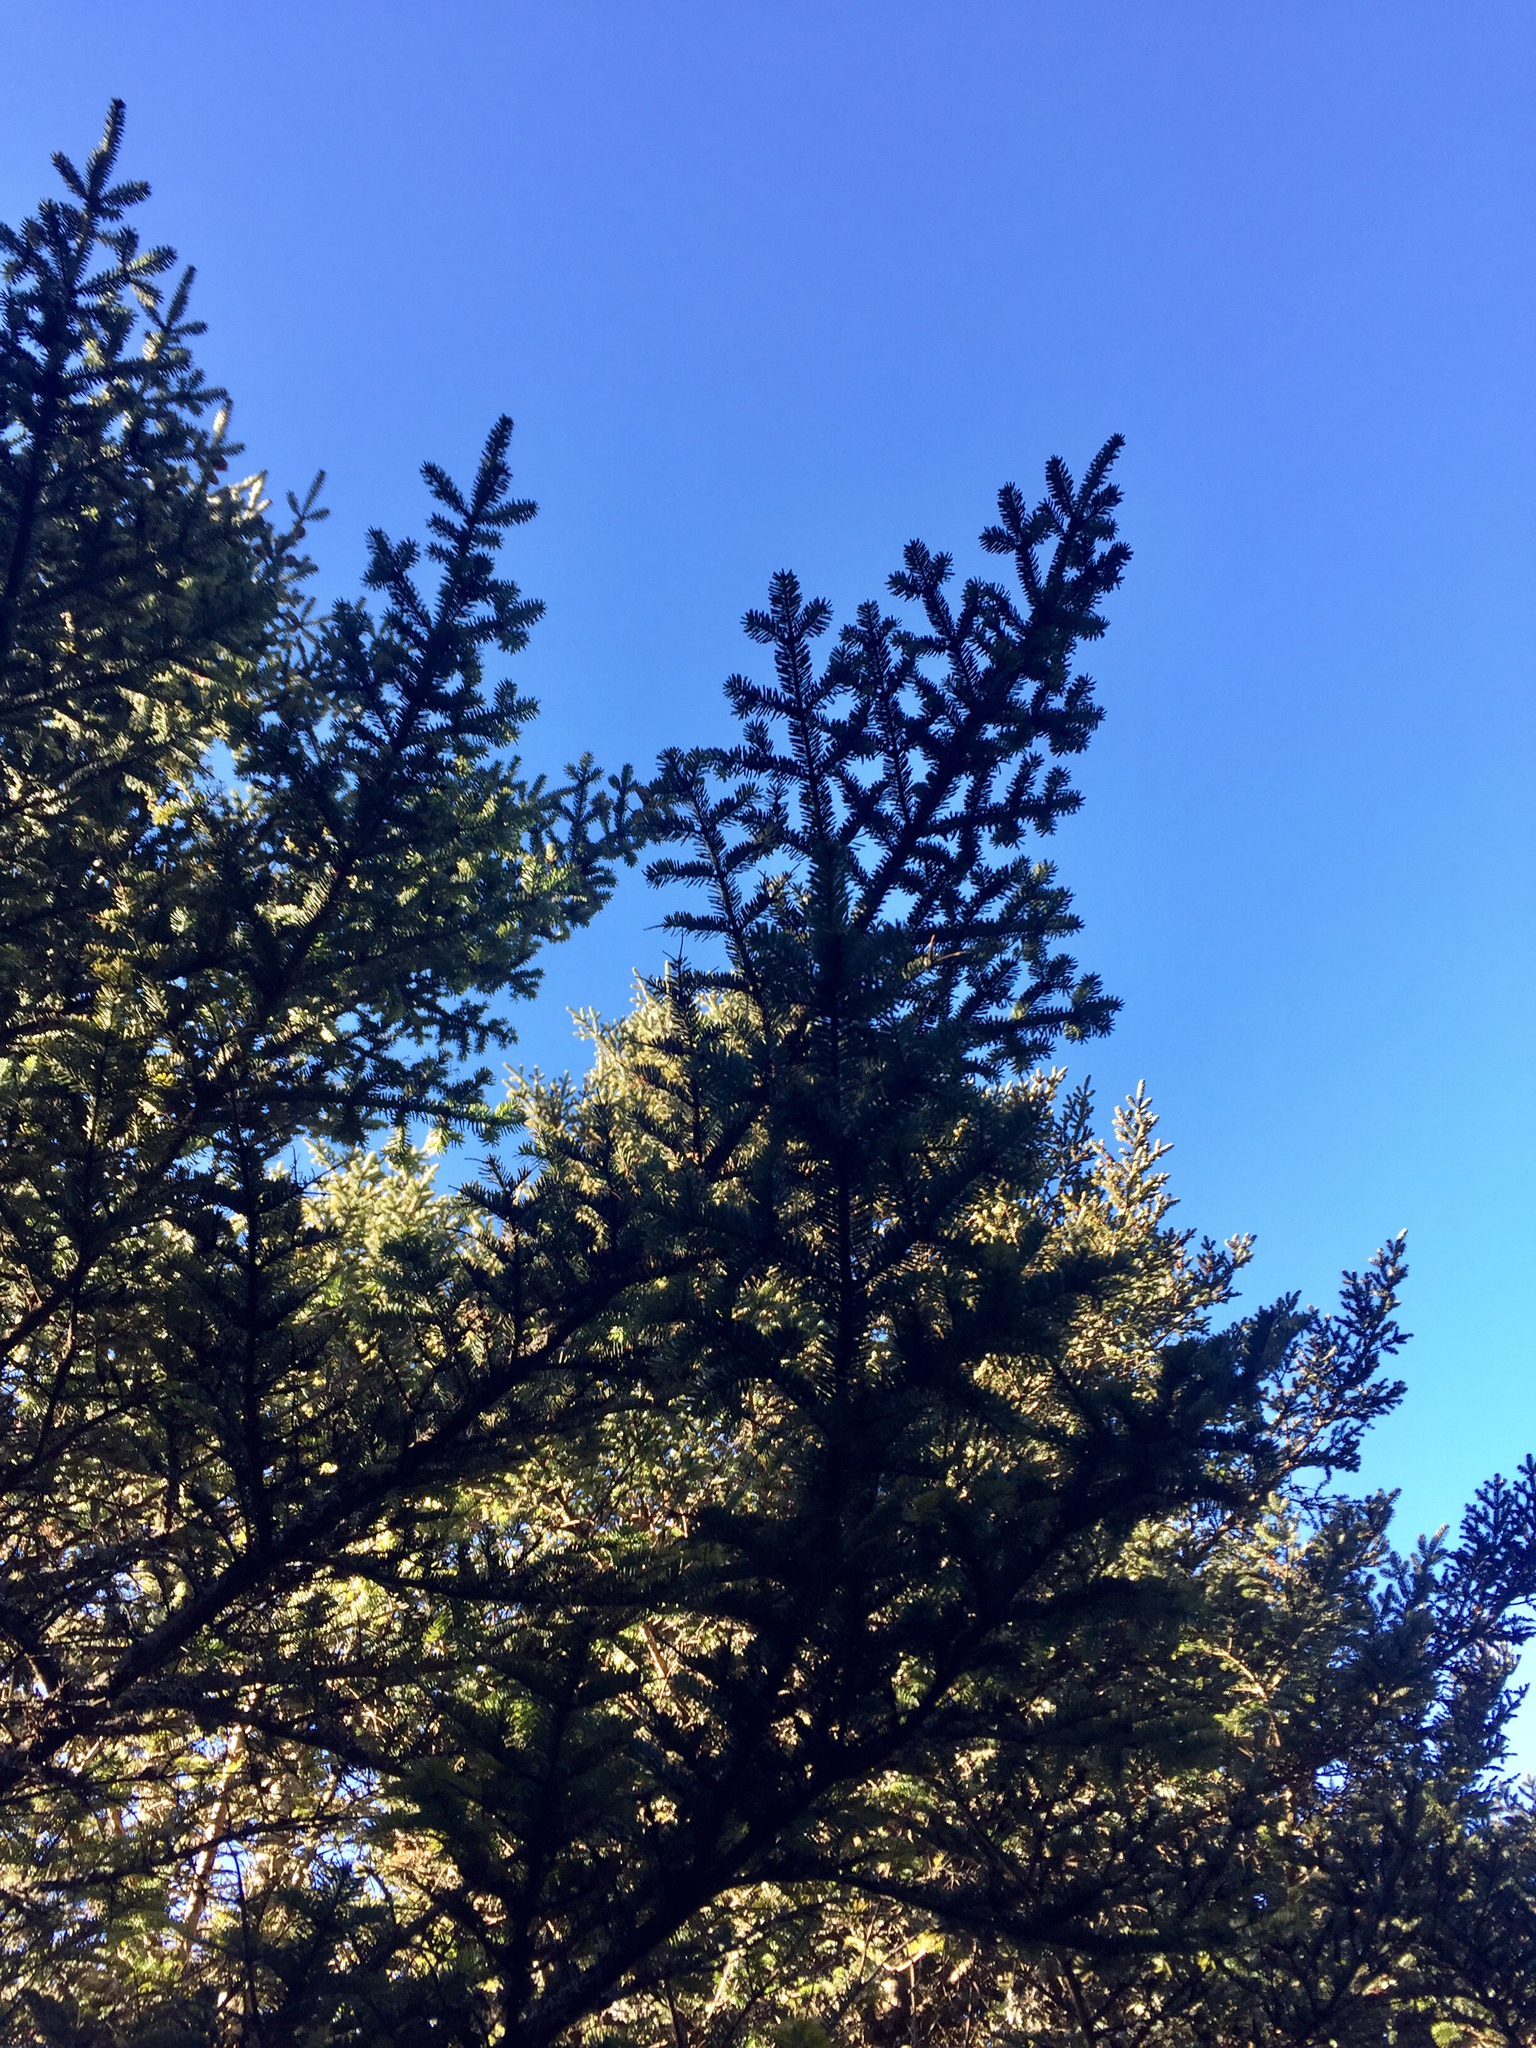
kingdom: Plantae
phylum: Tracheophyta
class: Pinopsida
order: Pinales
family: Pinaceae
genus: Abies
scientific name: Abies fraseri
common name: Fraser fir
